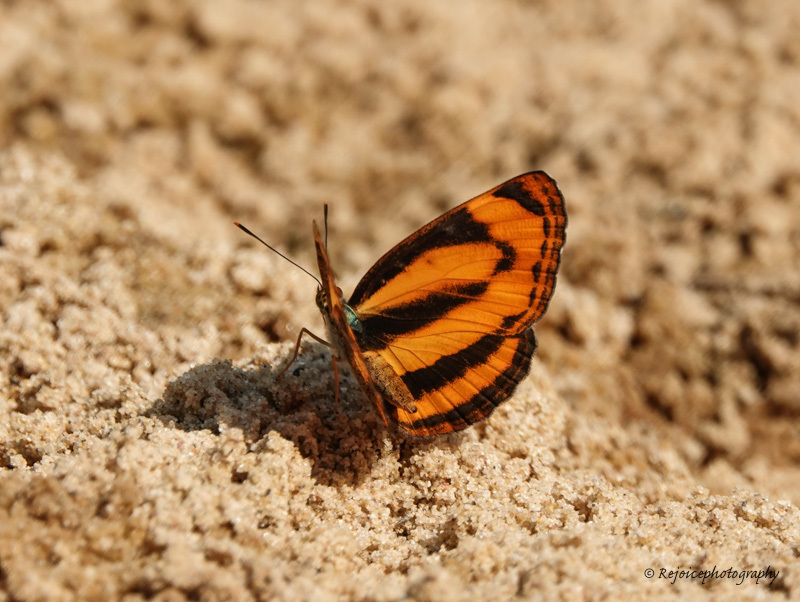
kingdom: Animalia
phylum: Arthropoda
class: Insecta
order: Lepidoptera
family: Nymphalidae
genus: Pantoporia
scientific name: Pantoporia hordonia
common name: Common lascar
